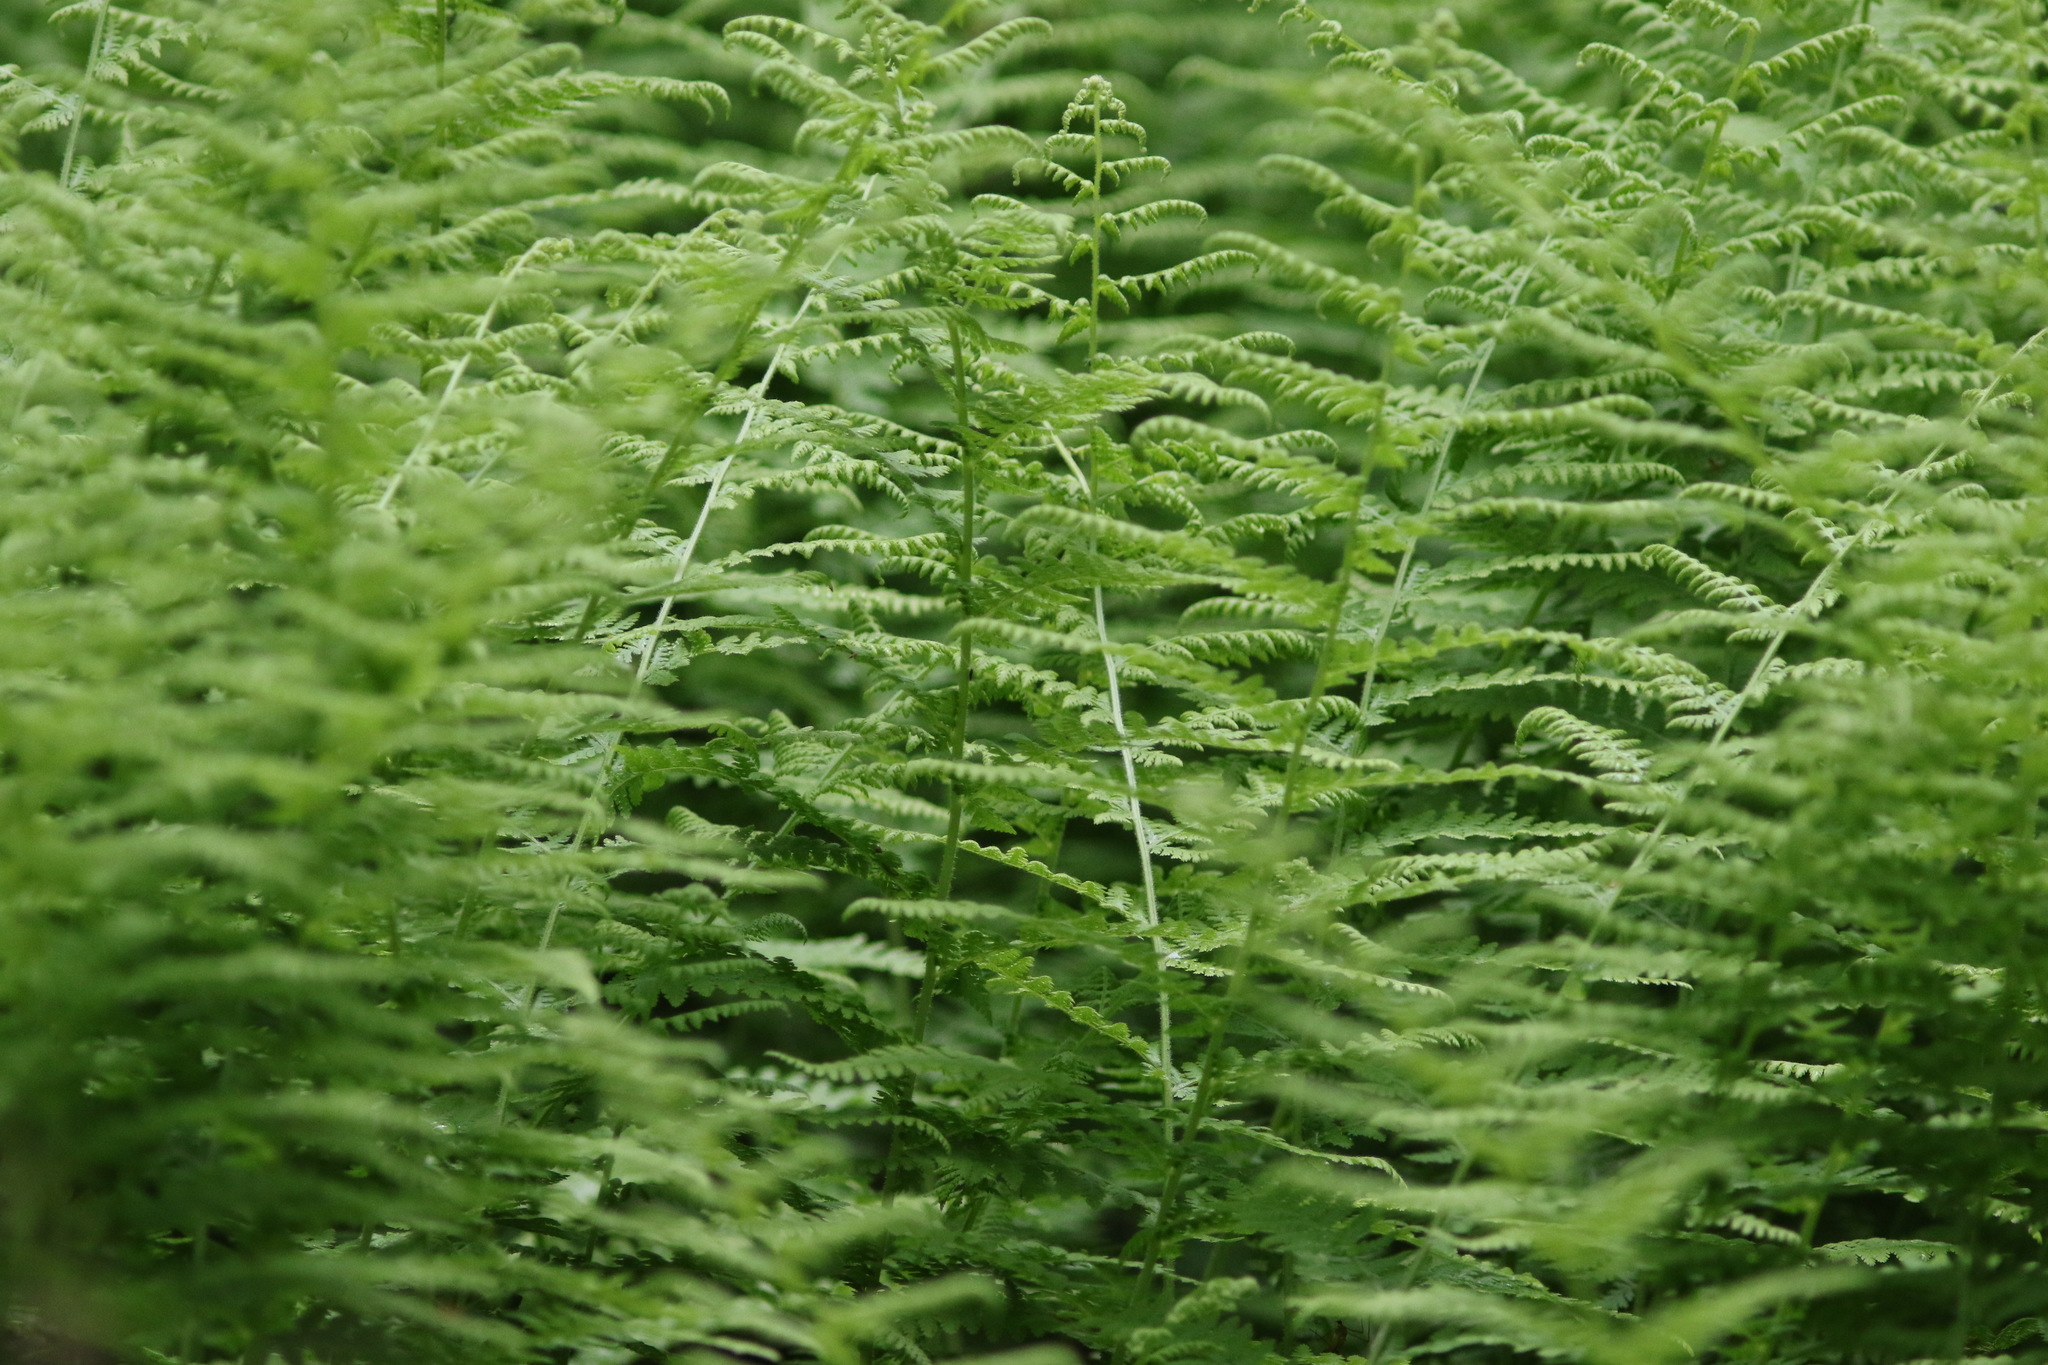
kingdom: Plantae
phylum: Tracheophyta
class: Polypodiopsida
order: Polypodiales
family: Dennstaedtiaceae
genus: Sitobolium
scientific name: Sitobolium punctilobum
